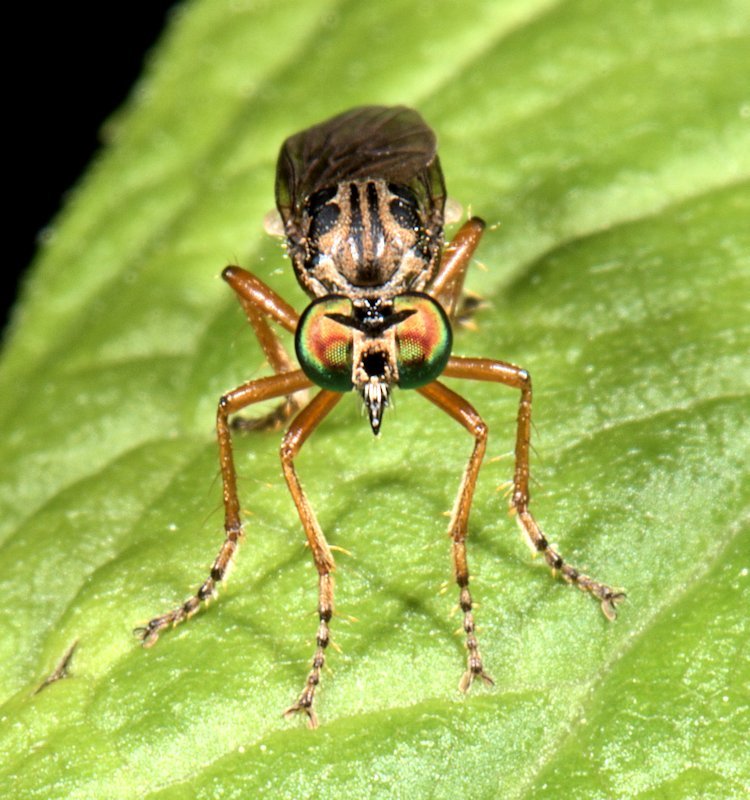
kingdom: Animalia
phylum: Arthropoda
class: Insecta
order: Diptera
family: Asilidae
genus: Taracticus
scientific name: Taracticus octopunctatus
